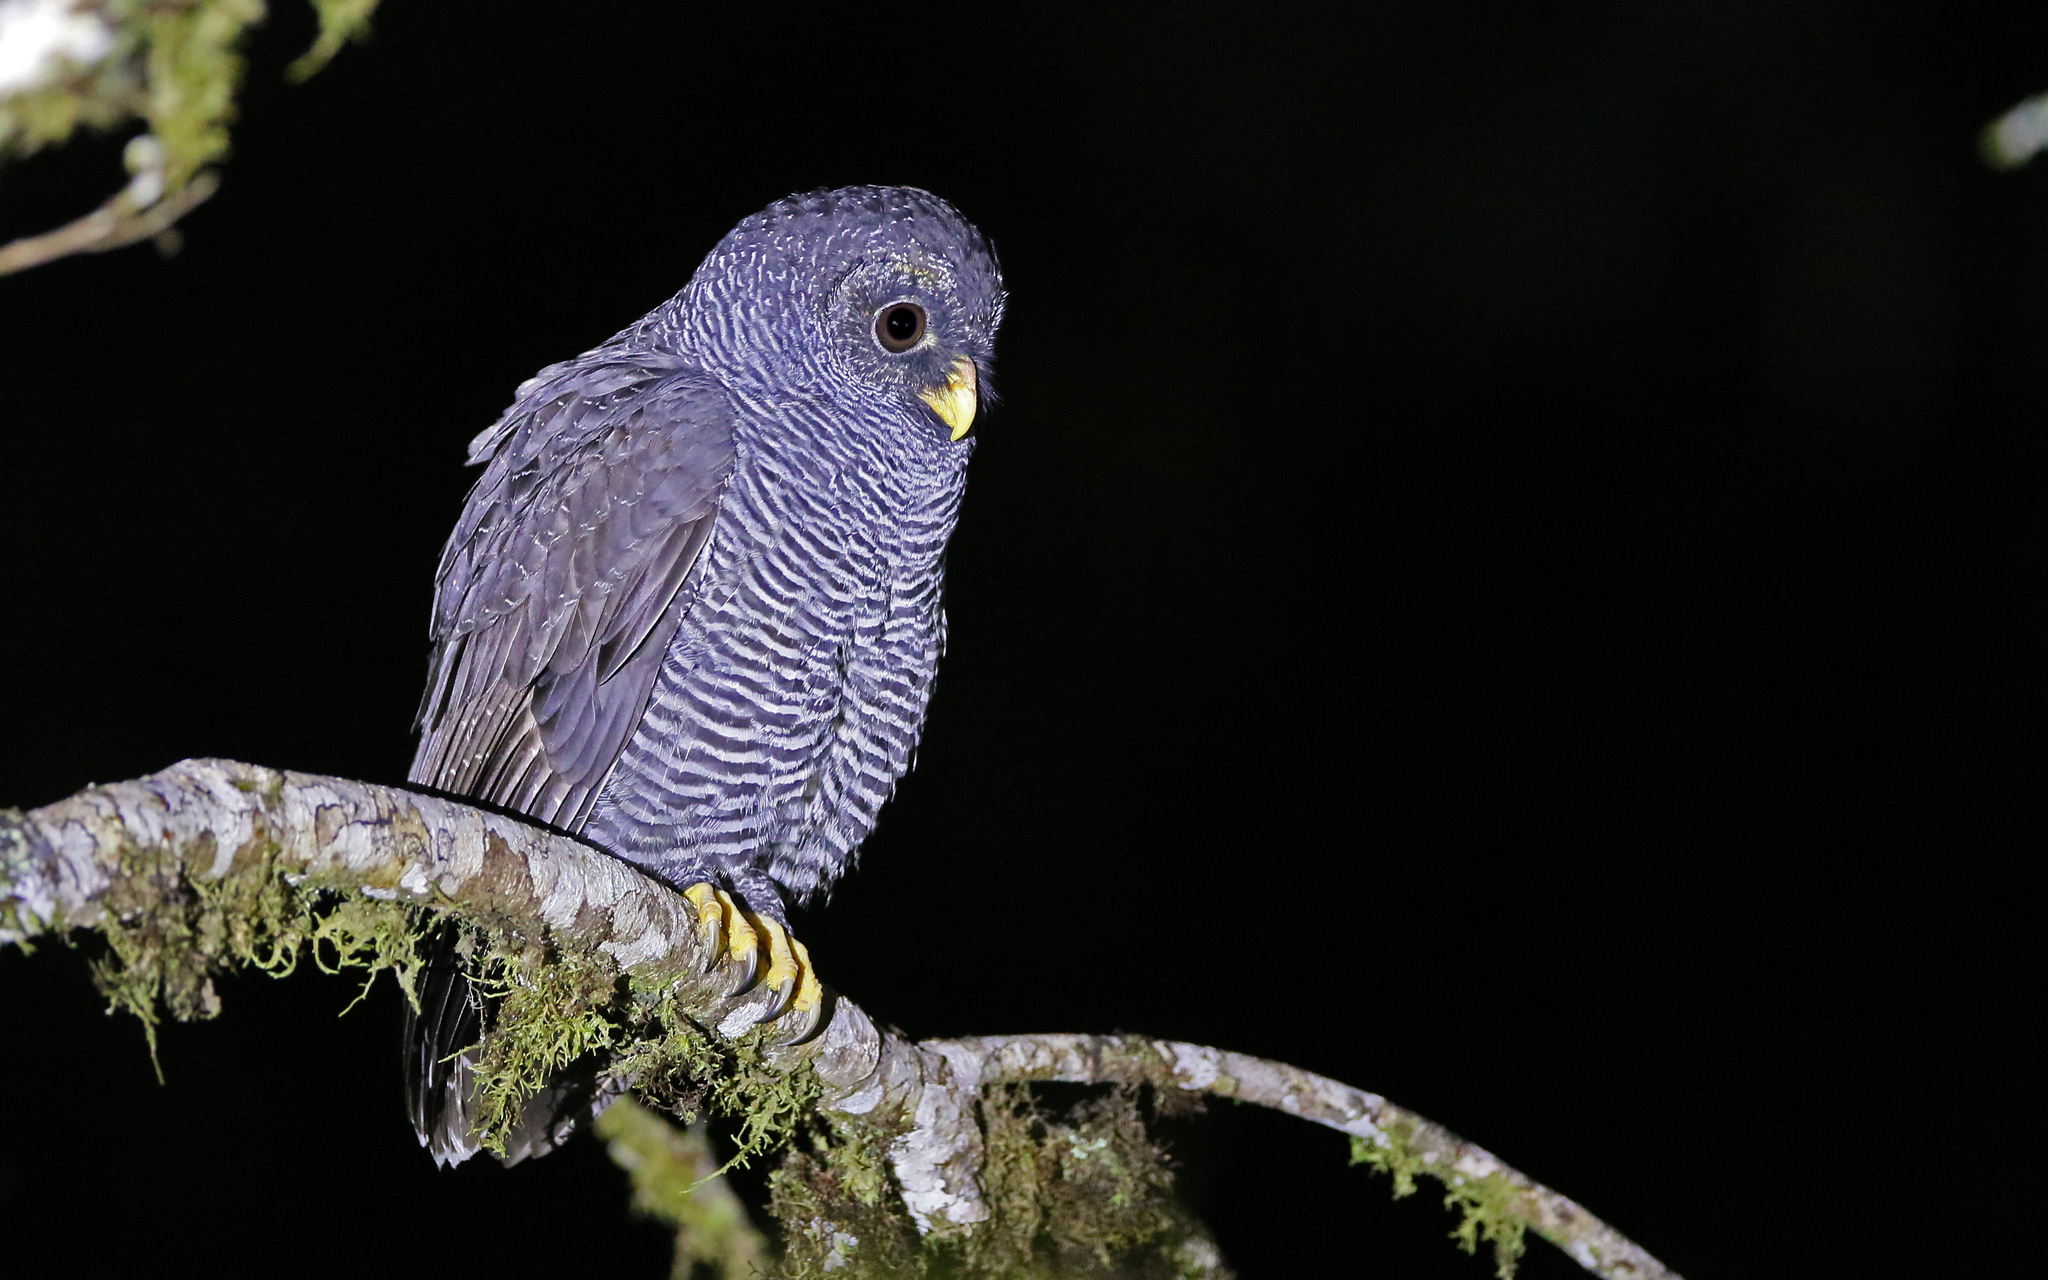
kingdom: Animalia
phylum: Chordata
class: Aves
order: Strigiformes
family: Strigidae
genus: Strix
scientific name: Strix huhula
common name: Black-banded owl
